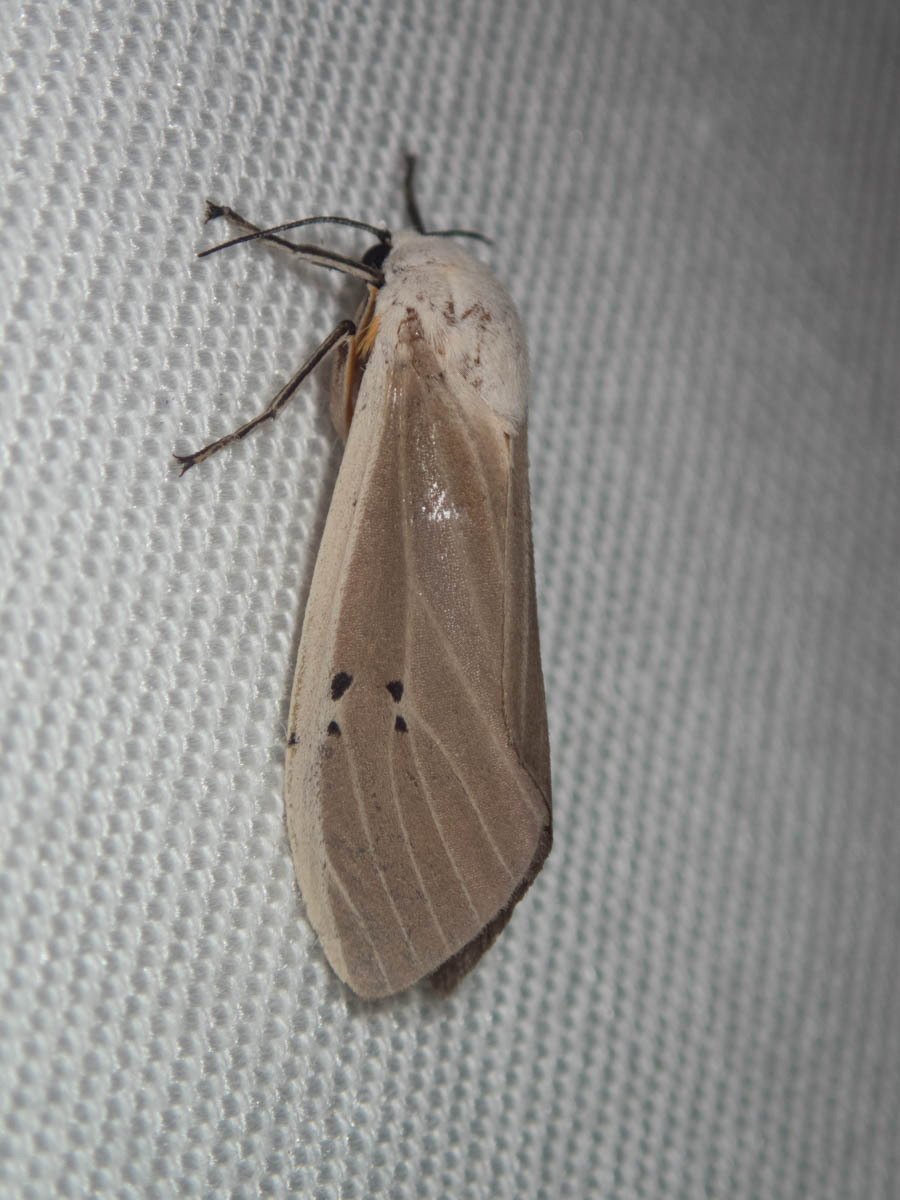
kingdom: Animalia
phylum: Arthropoda
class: Insecta
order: Lepidoptera
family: Erebidae
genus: Creatonotos
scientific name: Creatonotos transiens
